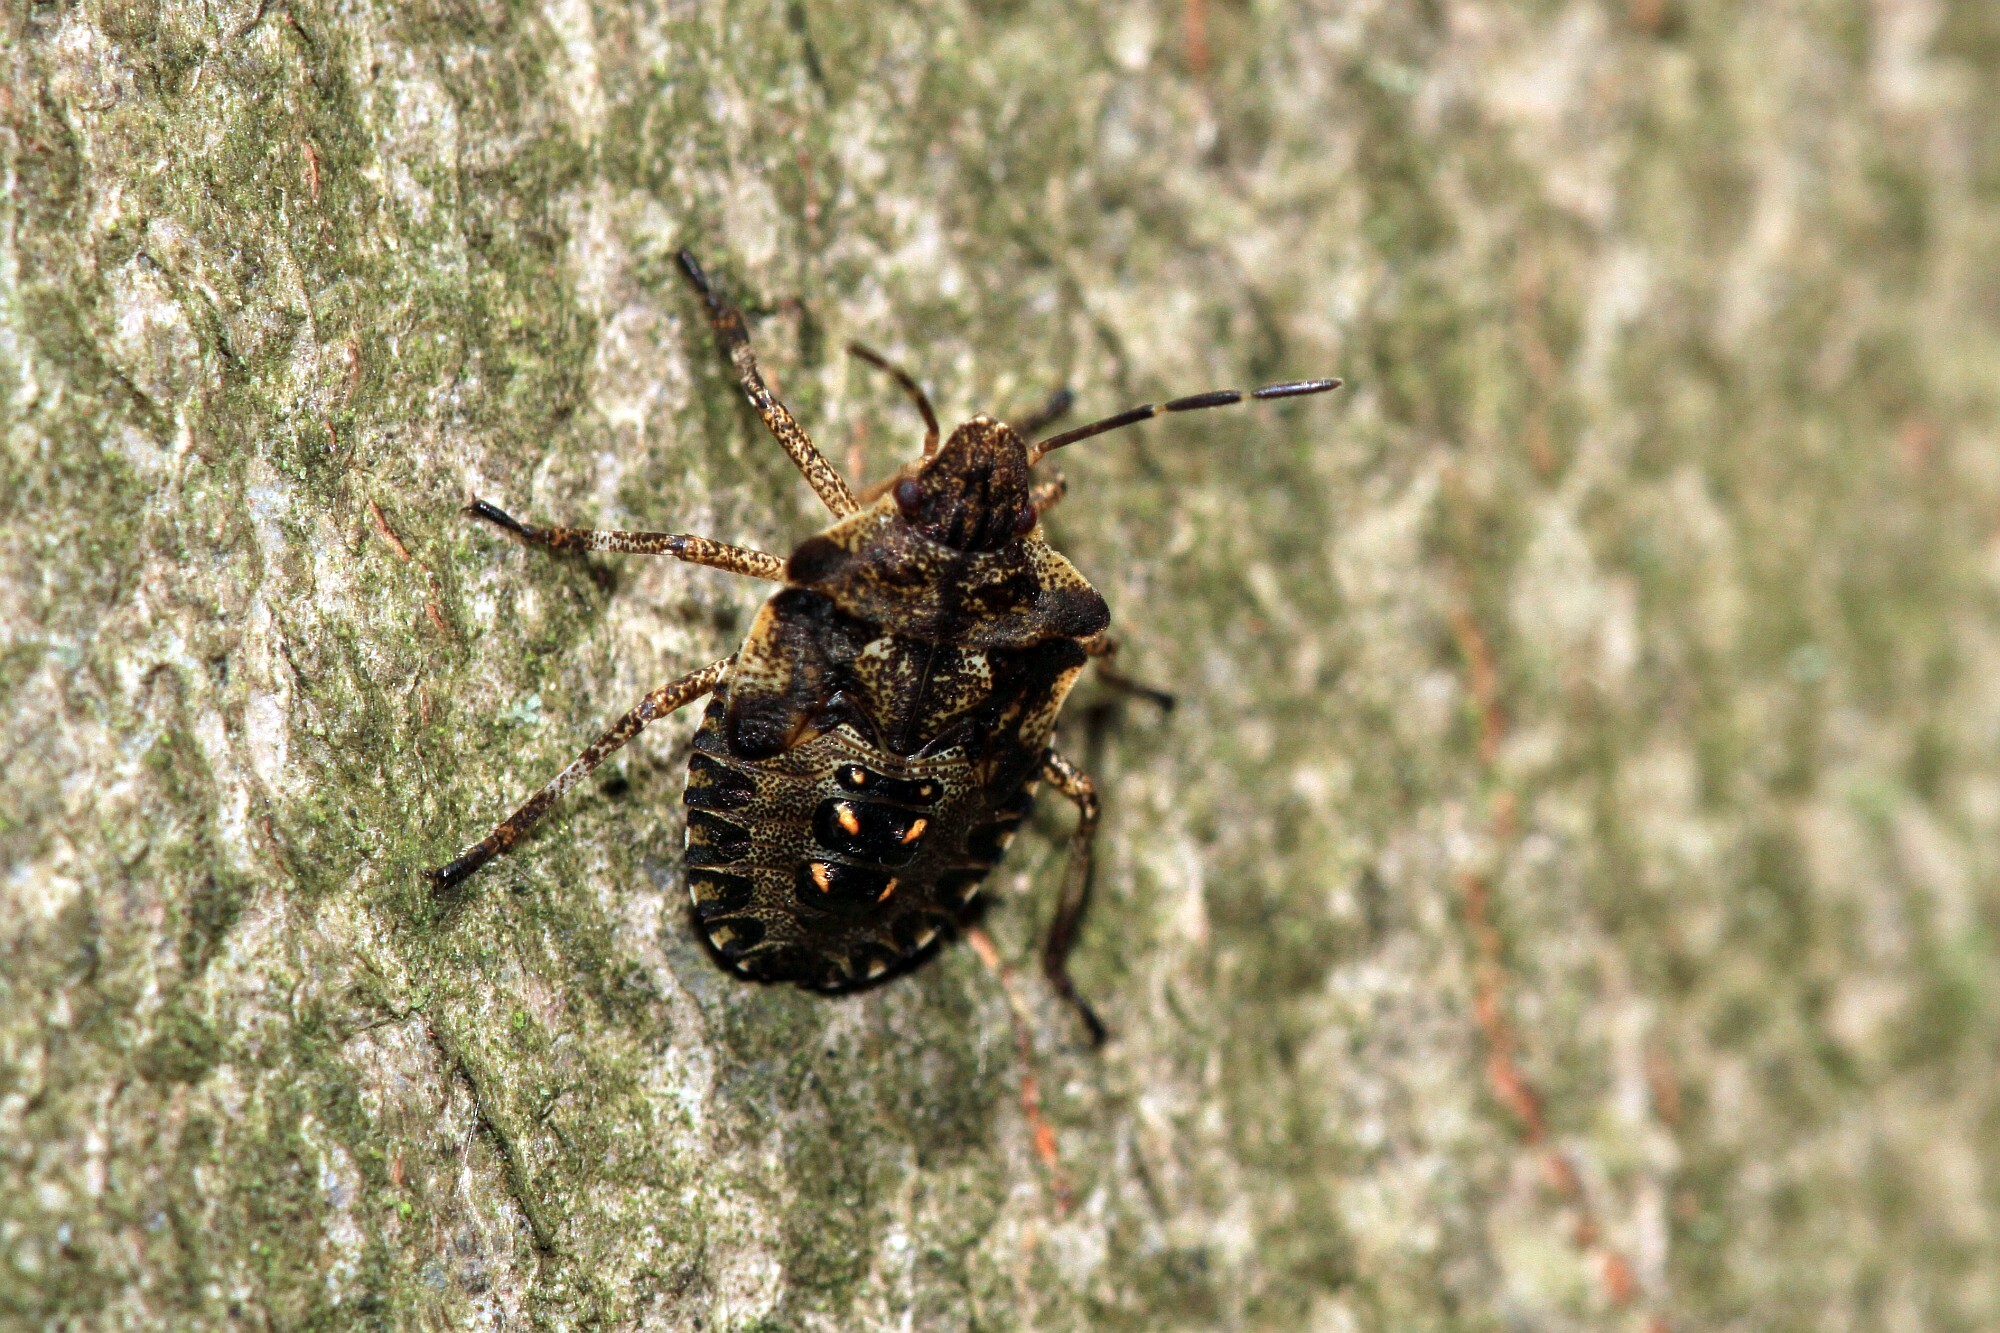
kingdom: Animalia
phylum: Arthropoda
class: Insecta
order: Hemiptera
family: Pentatomidae
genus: Pentatoma
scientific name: Pentatoma rufipes
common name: Forest bug
